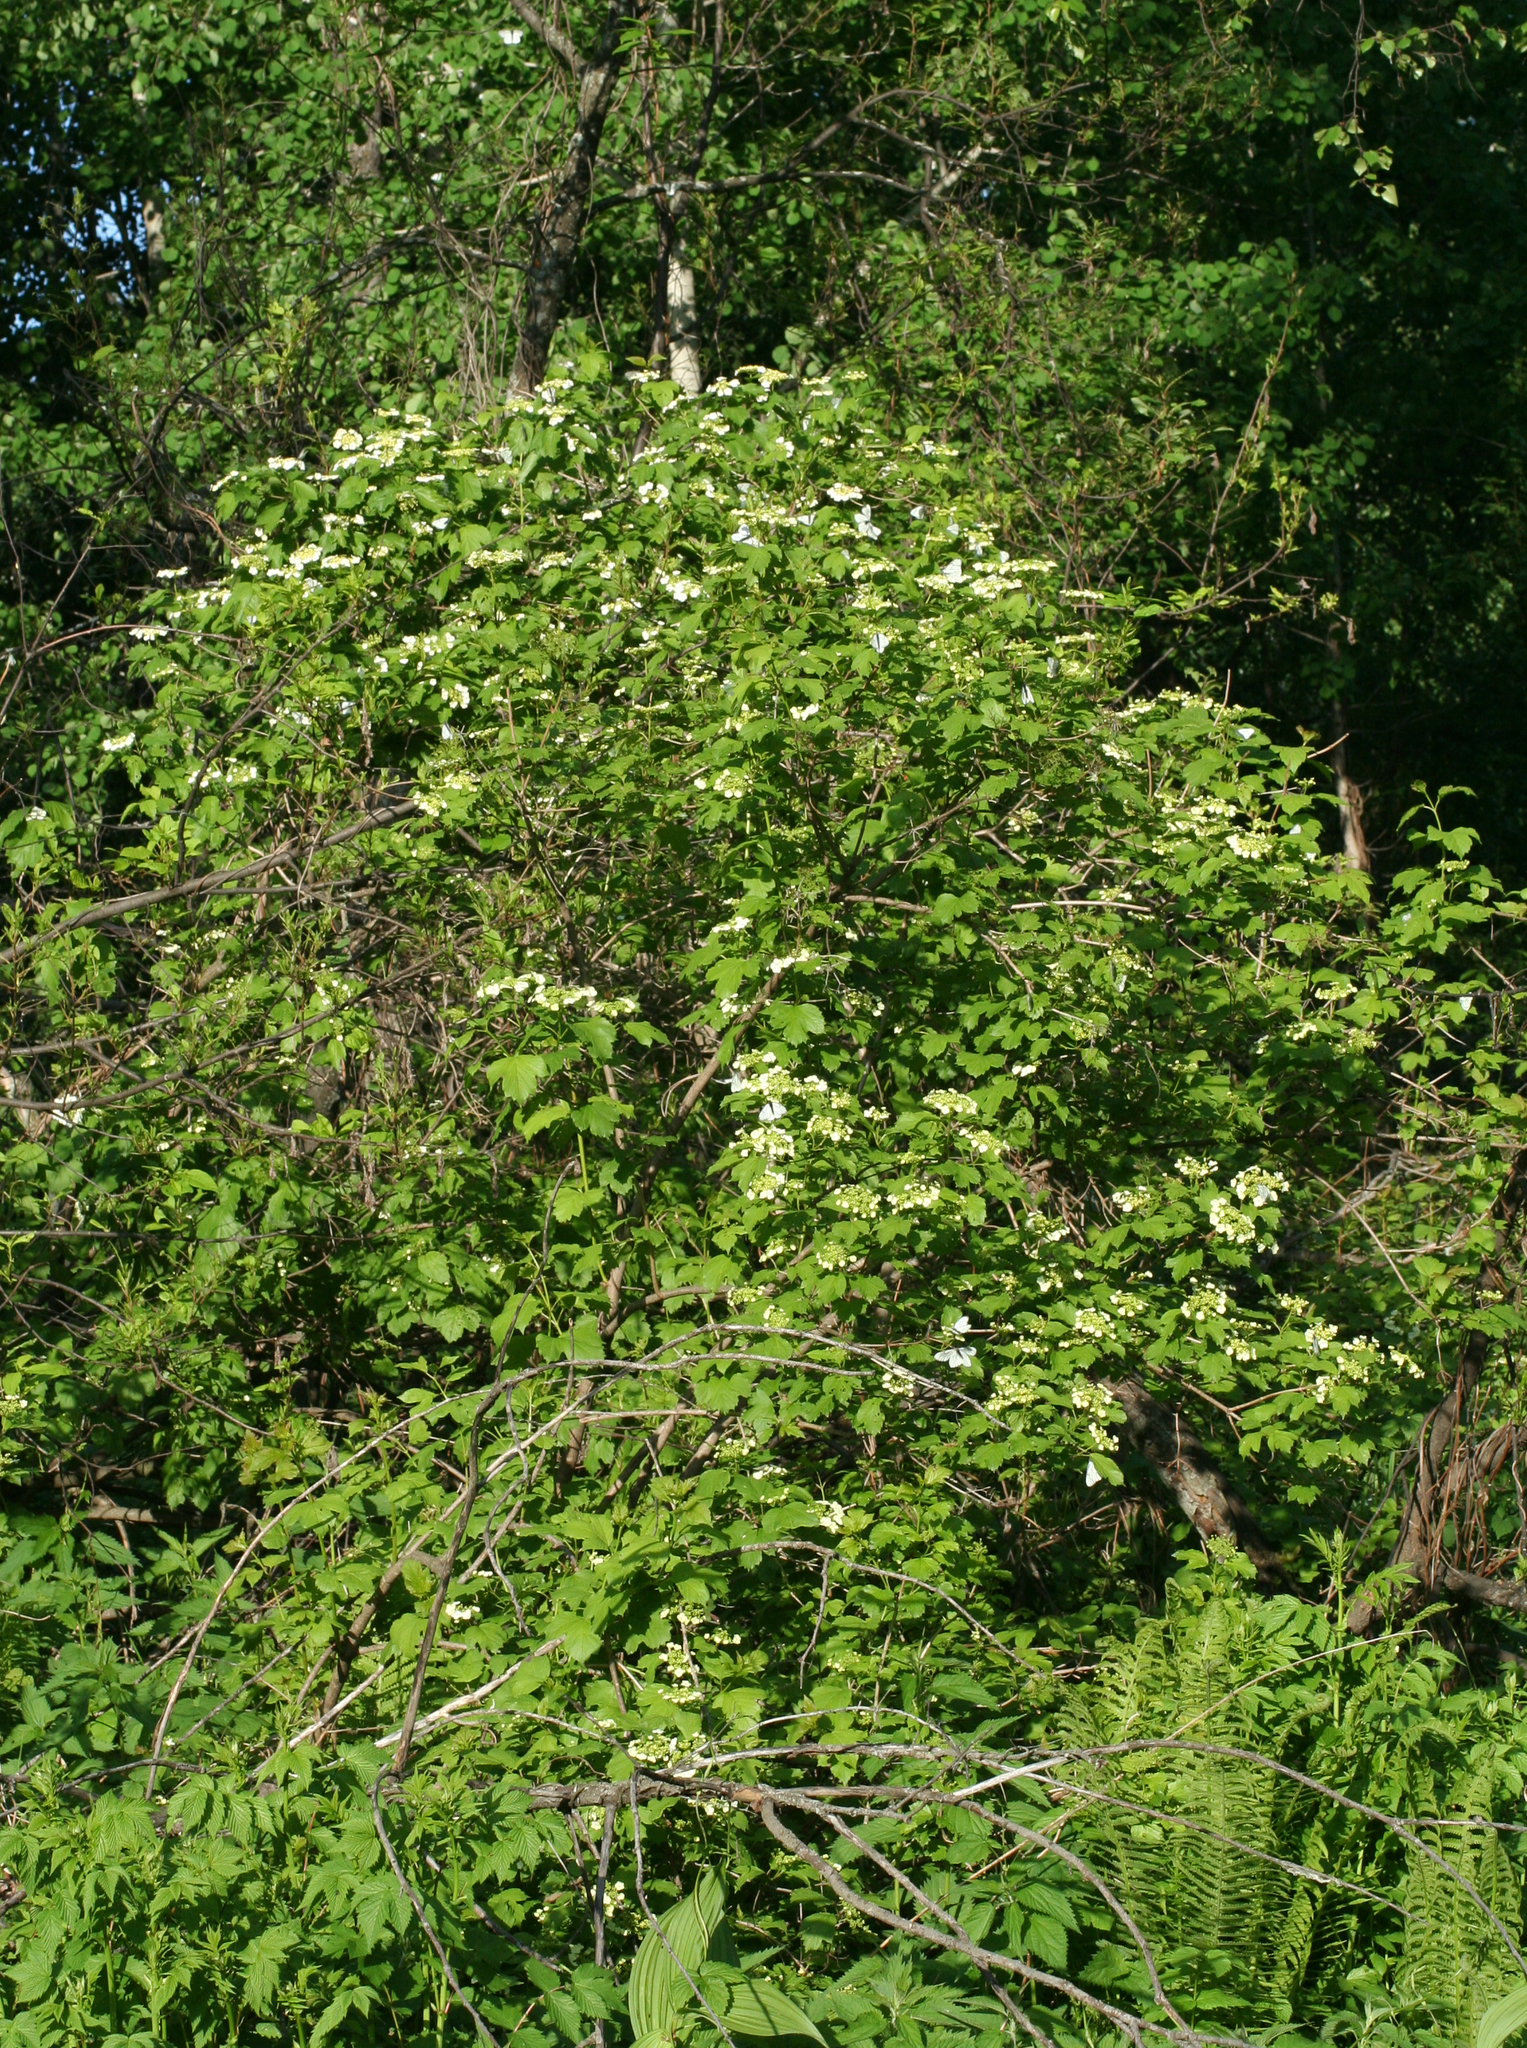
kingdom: Plantae
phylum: Tracheophyta
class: Magnoliopsida
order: Dipsacales
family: Viburnaceae
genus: Viburnum
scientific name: Viburnum opulus
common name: Guelder-rose
